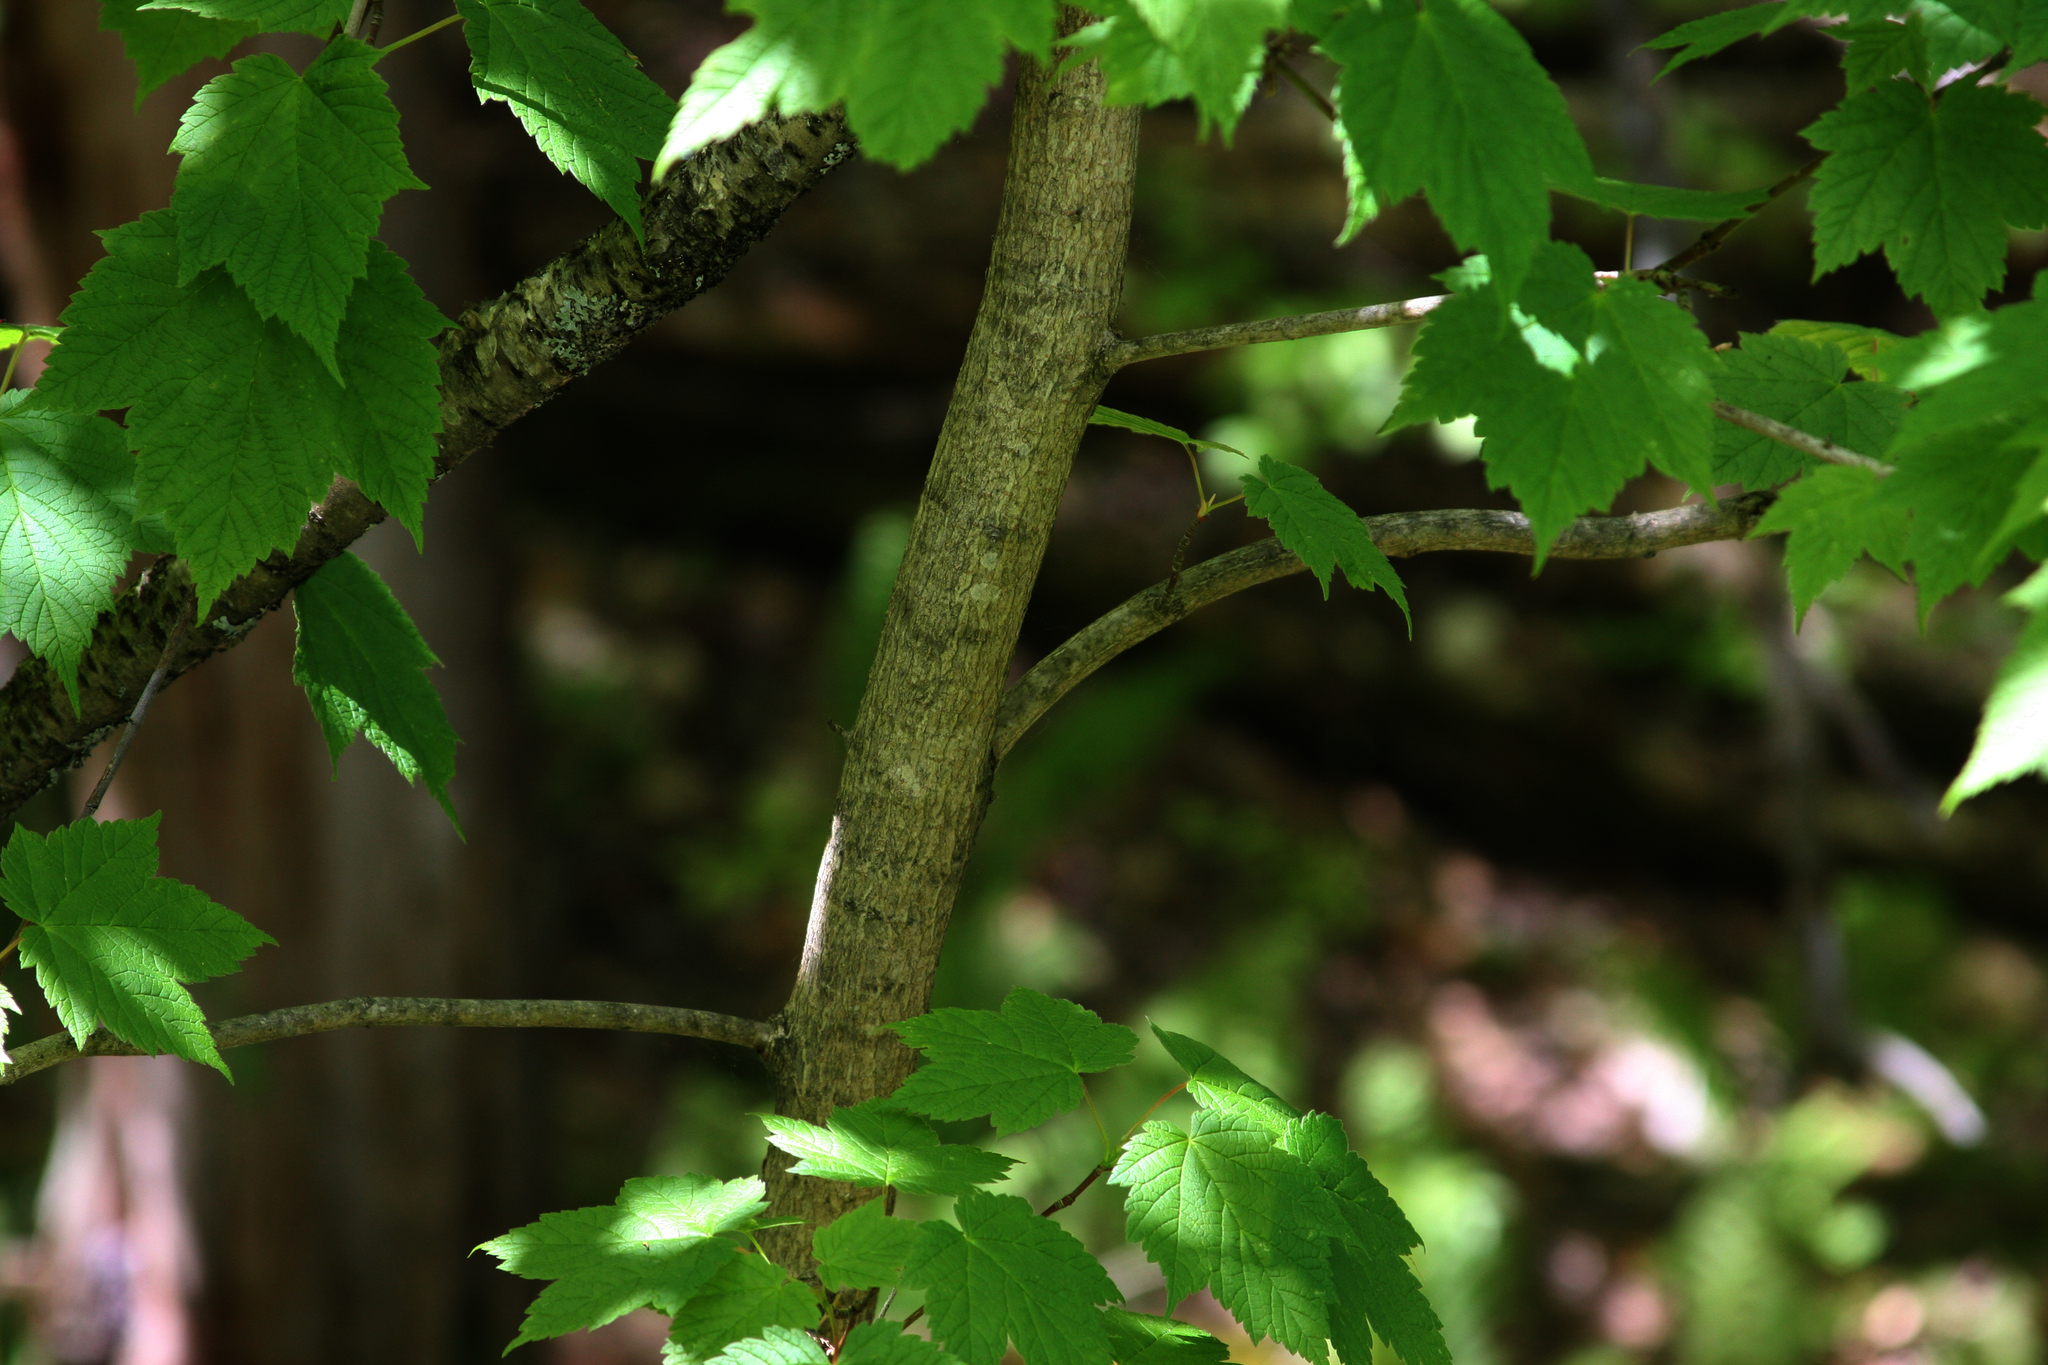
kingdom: Plantae
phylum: Tracheophyta
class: Magnoliopsida
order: Sapindales
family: Sapindaceae
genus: Acer
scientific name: Acer spicatum
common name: Mountain maple
